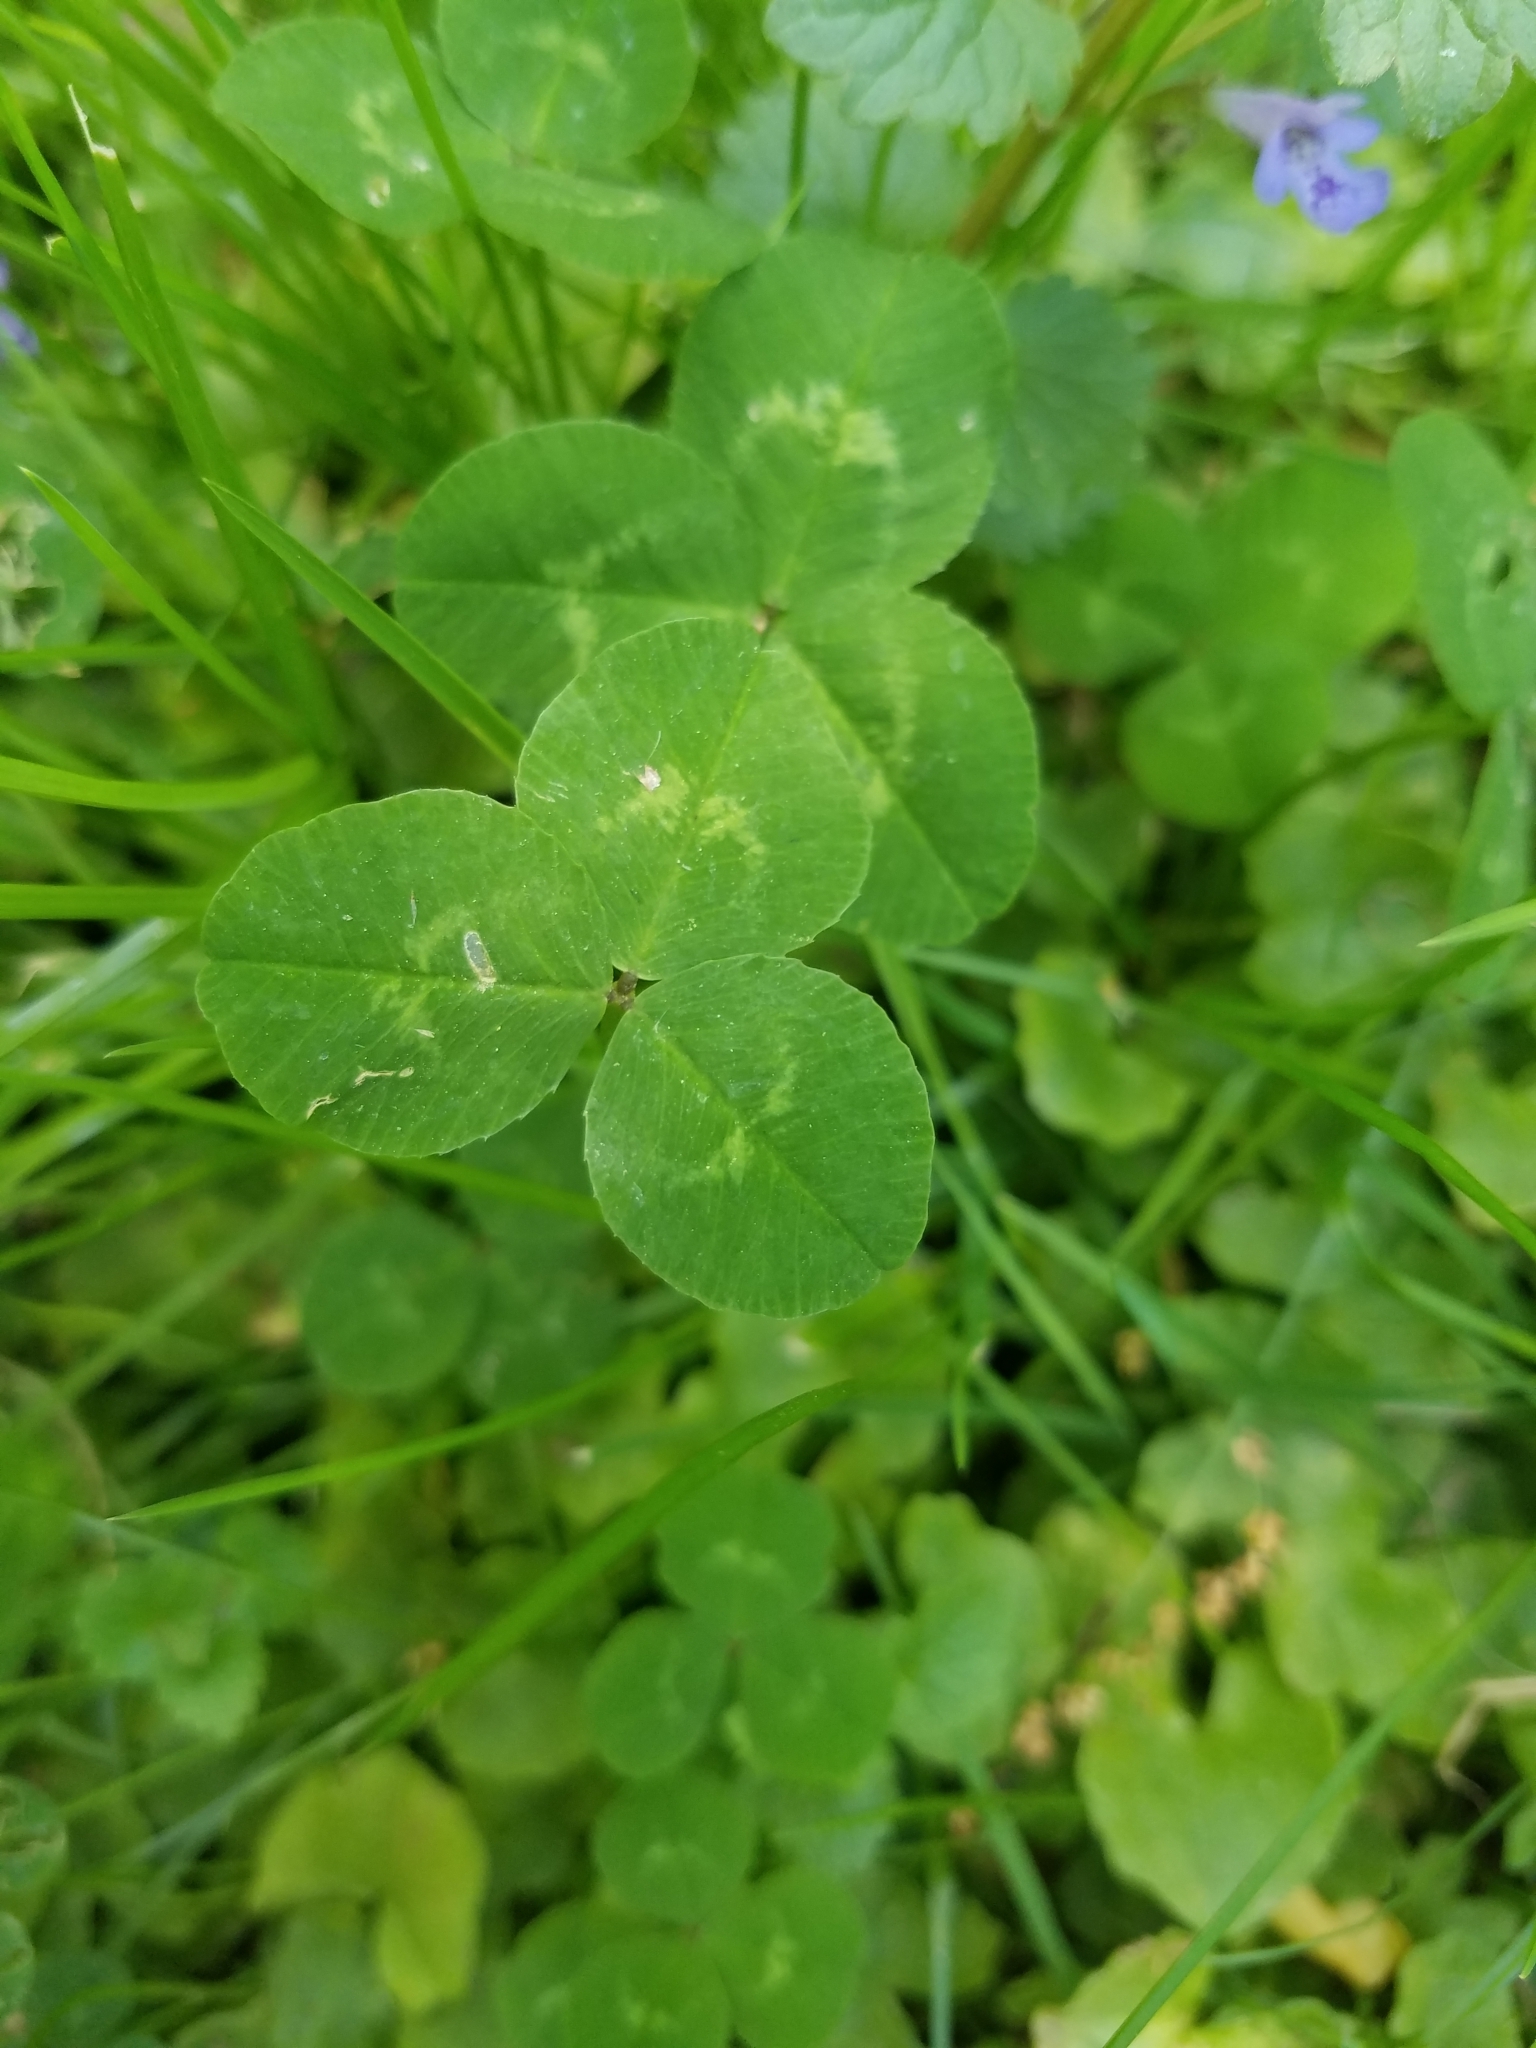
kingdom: Plantae
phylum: Tracheophyta
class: Magnoliopsida
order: Fabales
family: Fabaceae
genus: Trifolium
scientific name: Trifolium repens
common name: White clover
